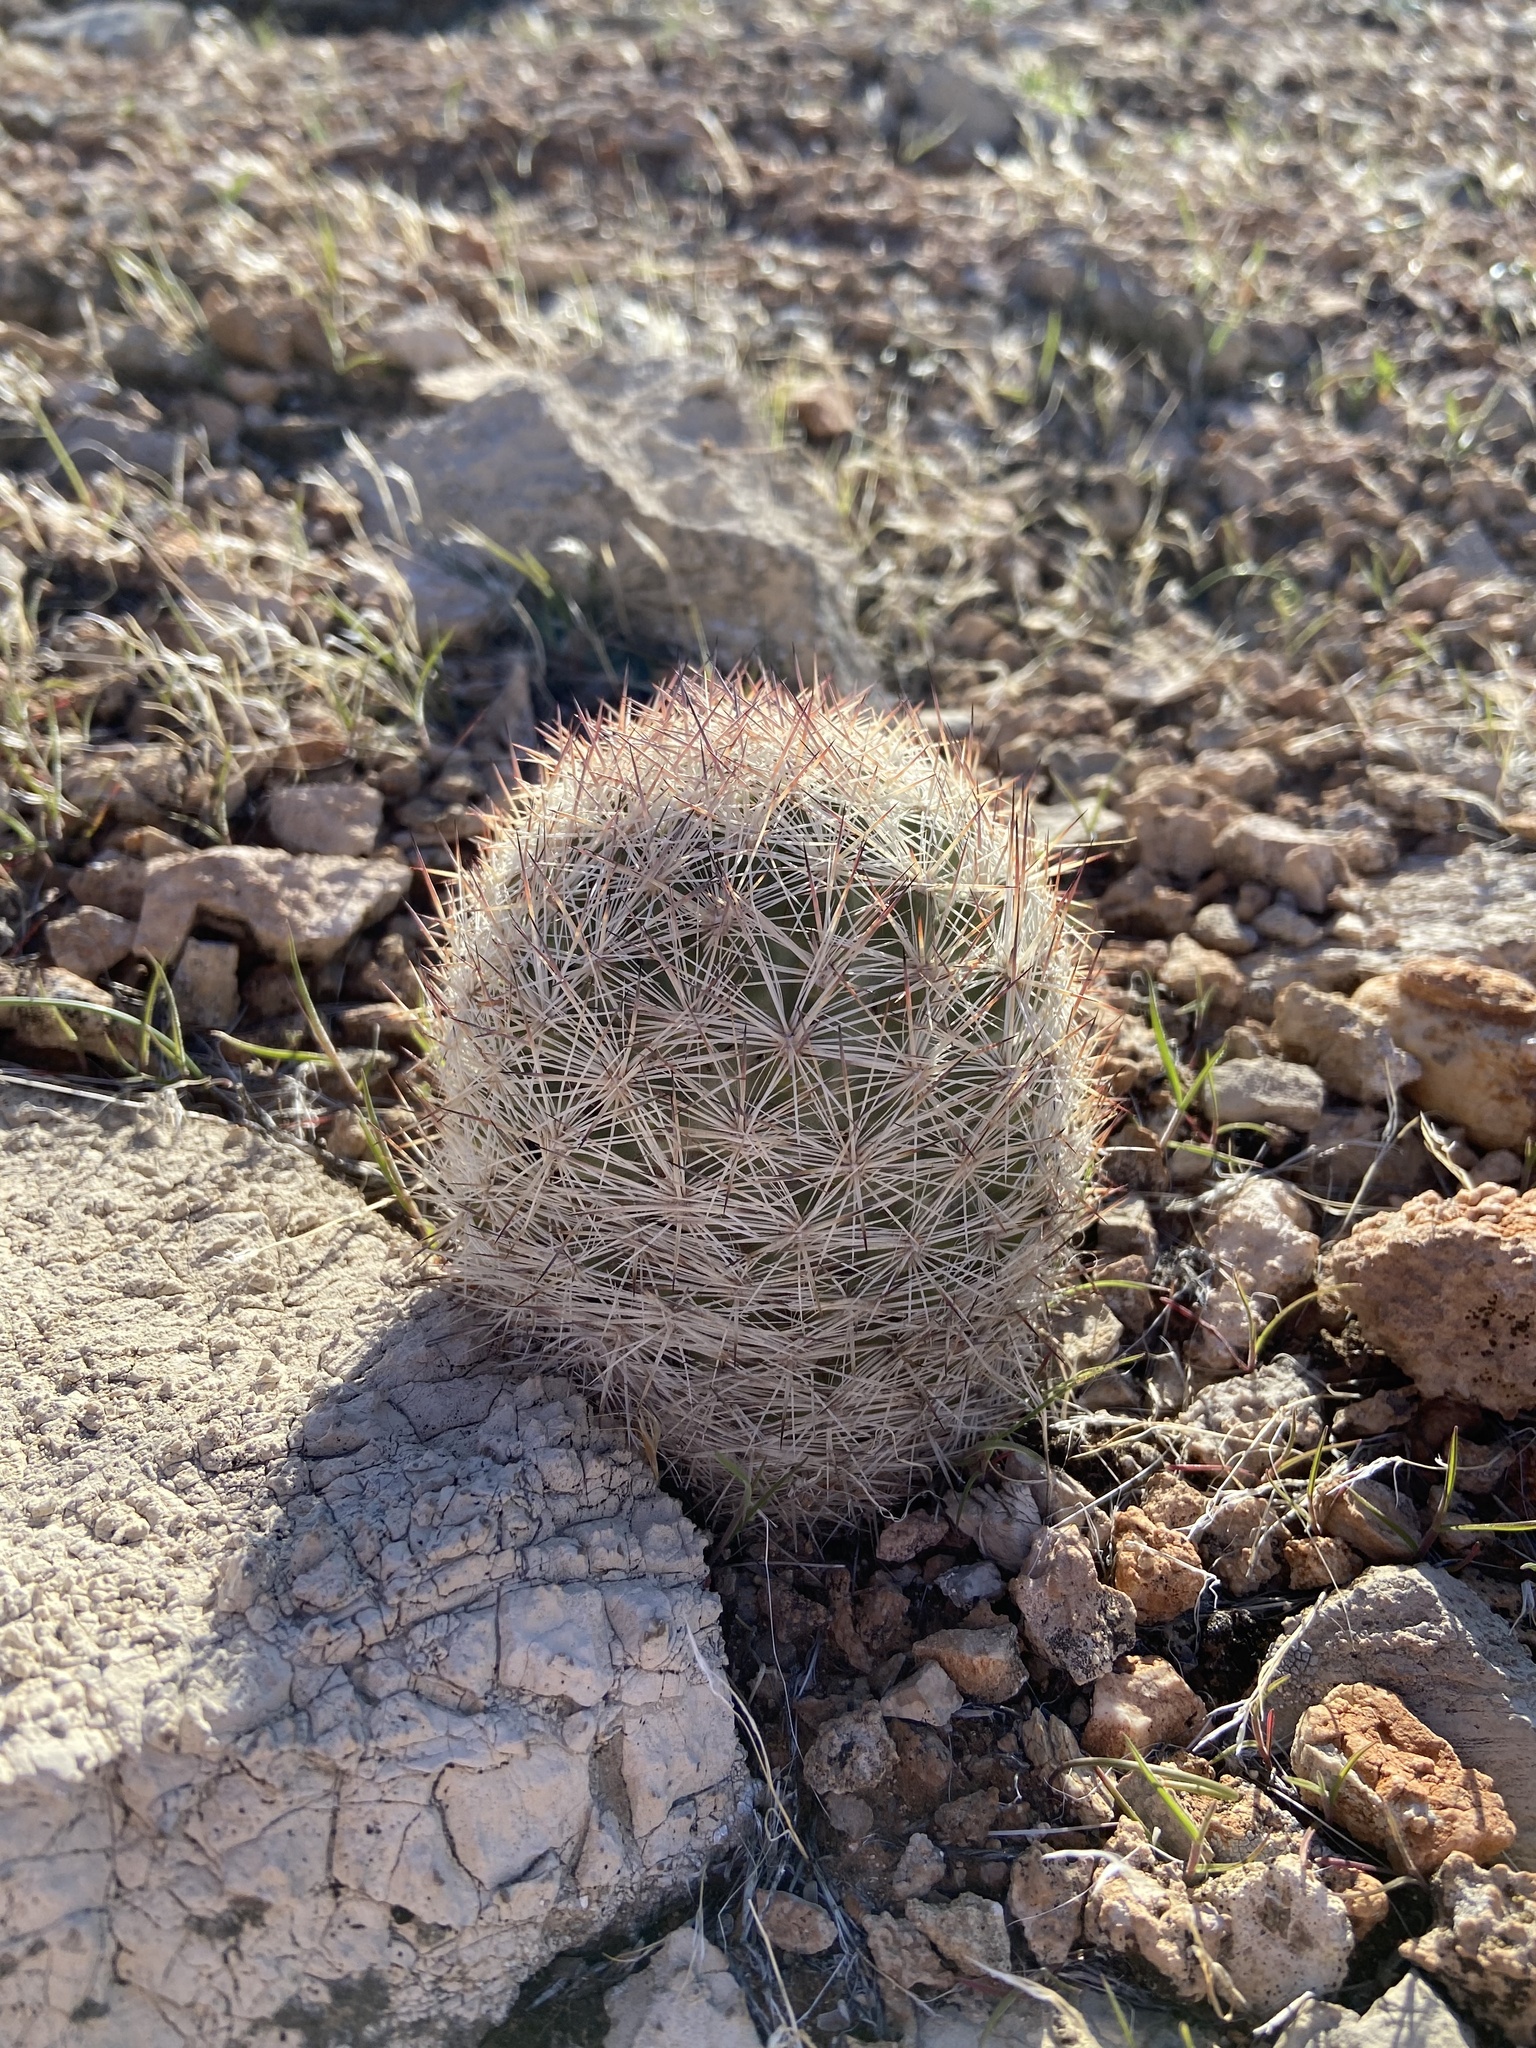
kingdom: Plantae
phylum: Tracheophyta
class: Magnoliopsida
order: Caryophyllales
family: Cactaceae
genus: Pelecyphora
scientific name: Pelecyphora dasyacantha
